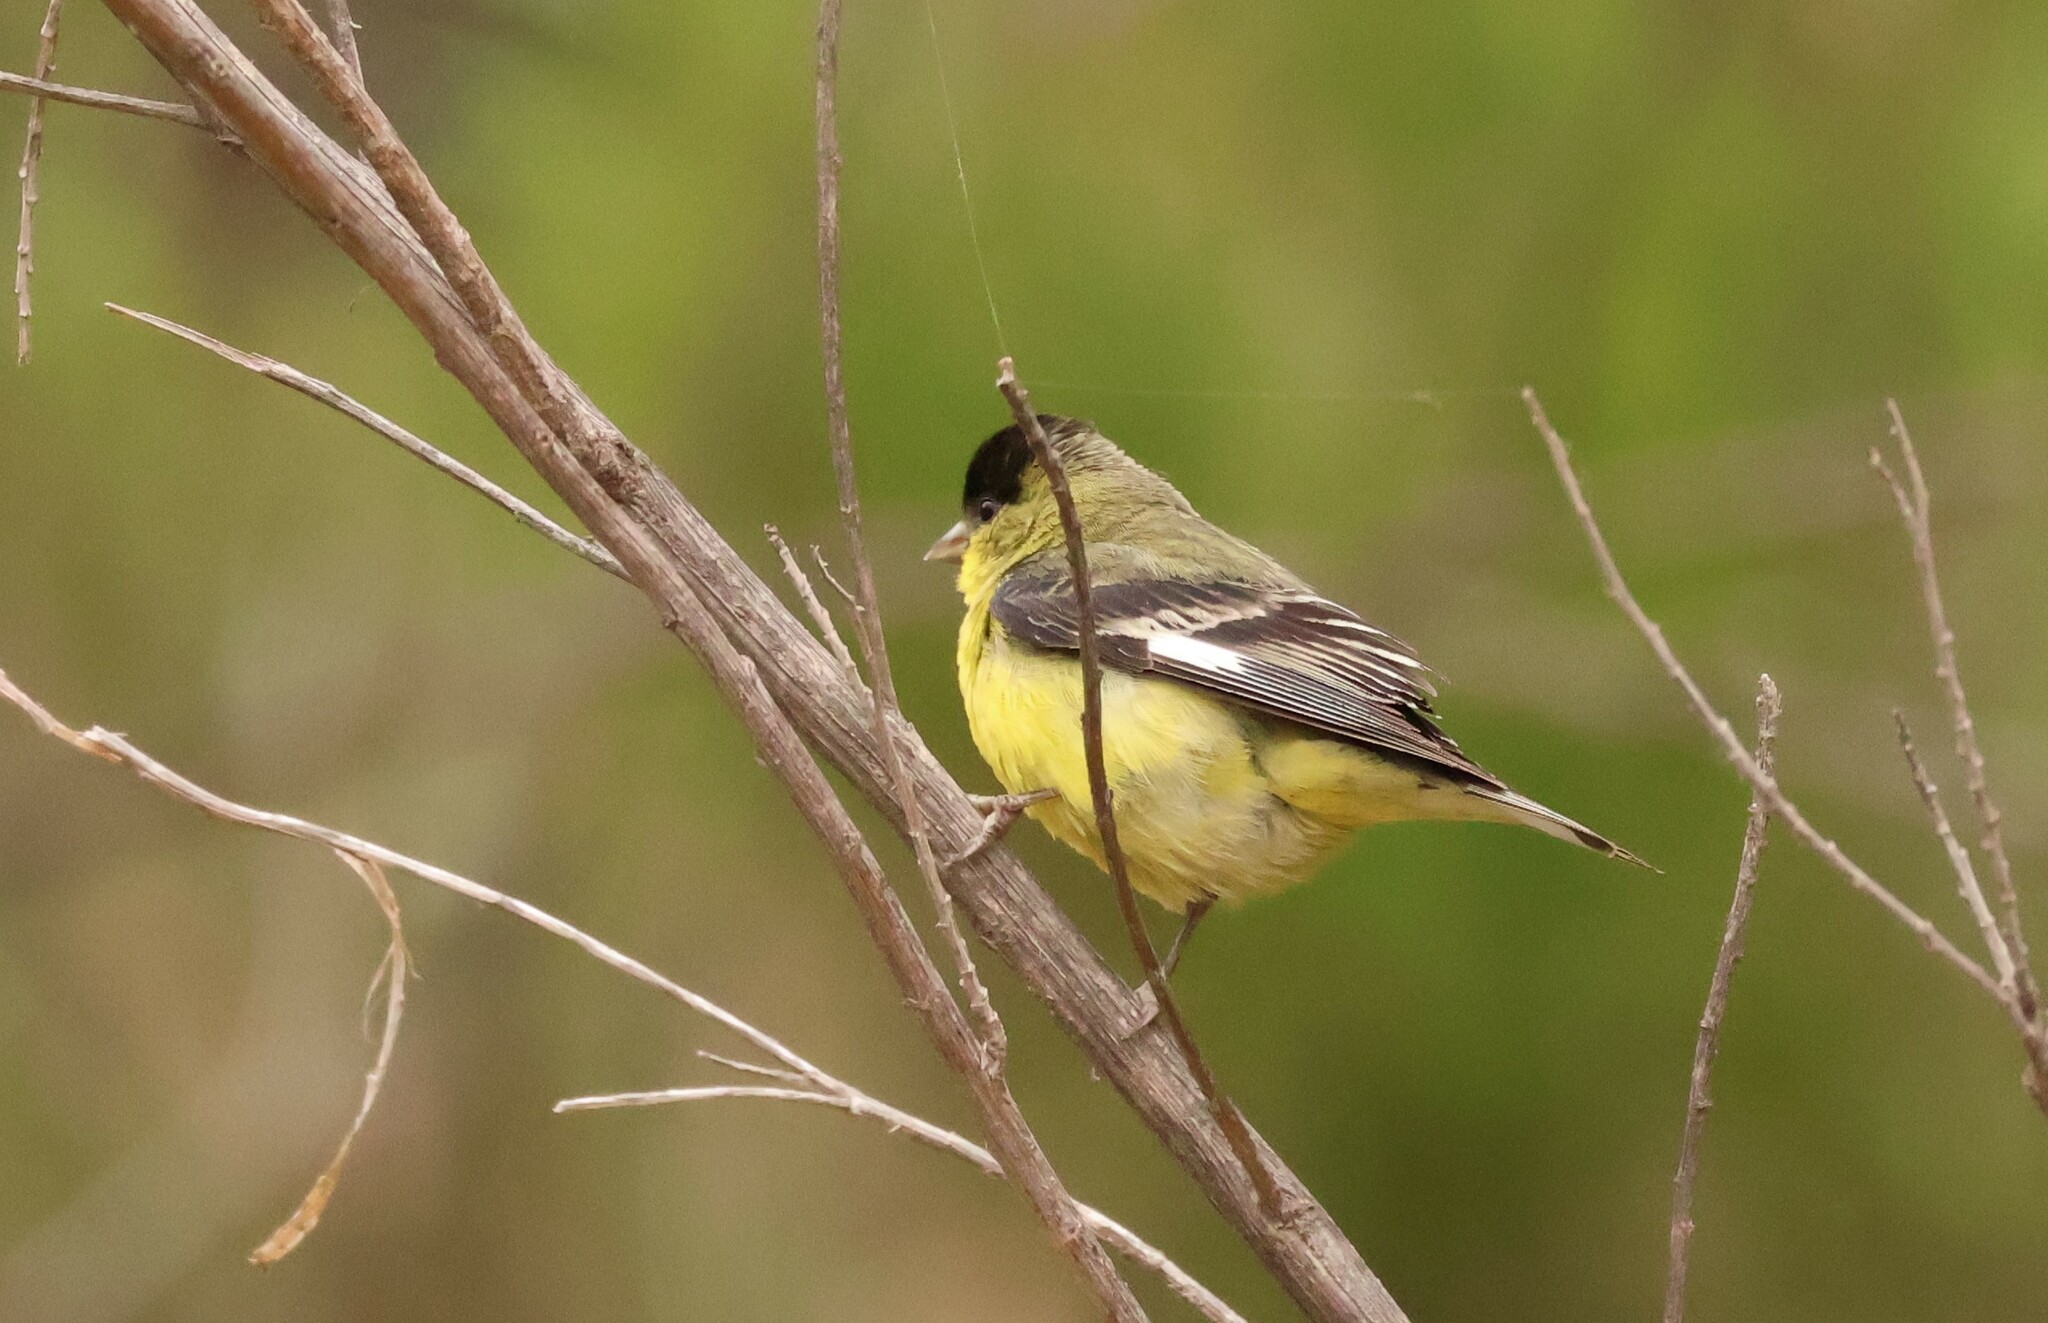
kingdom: Animalia
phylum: Chordata
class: Aves
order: Passeriformes
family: Fringillidae
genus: Spinus
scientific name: Spinus psaltria
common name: Lesser goldfinch
